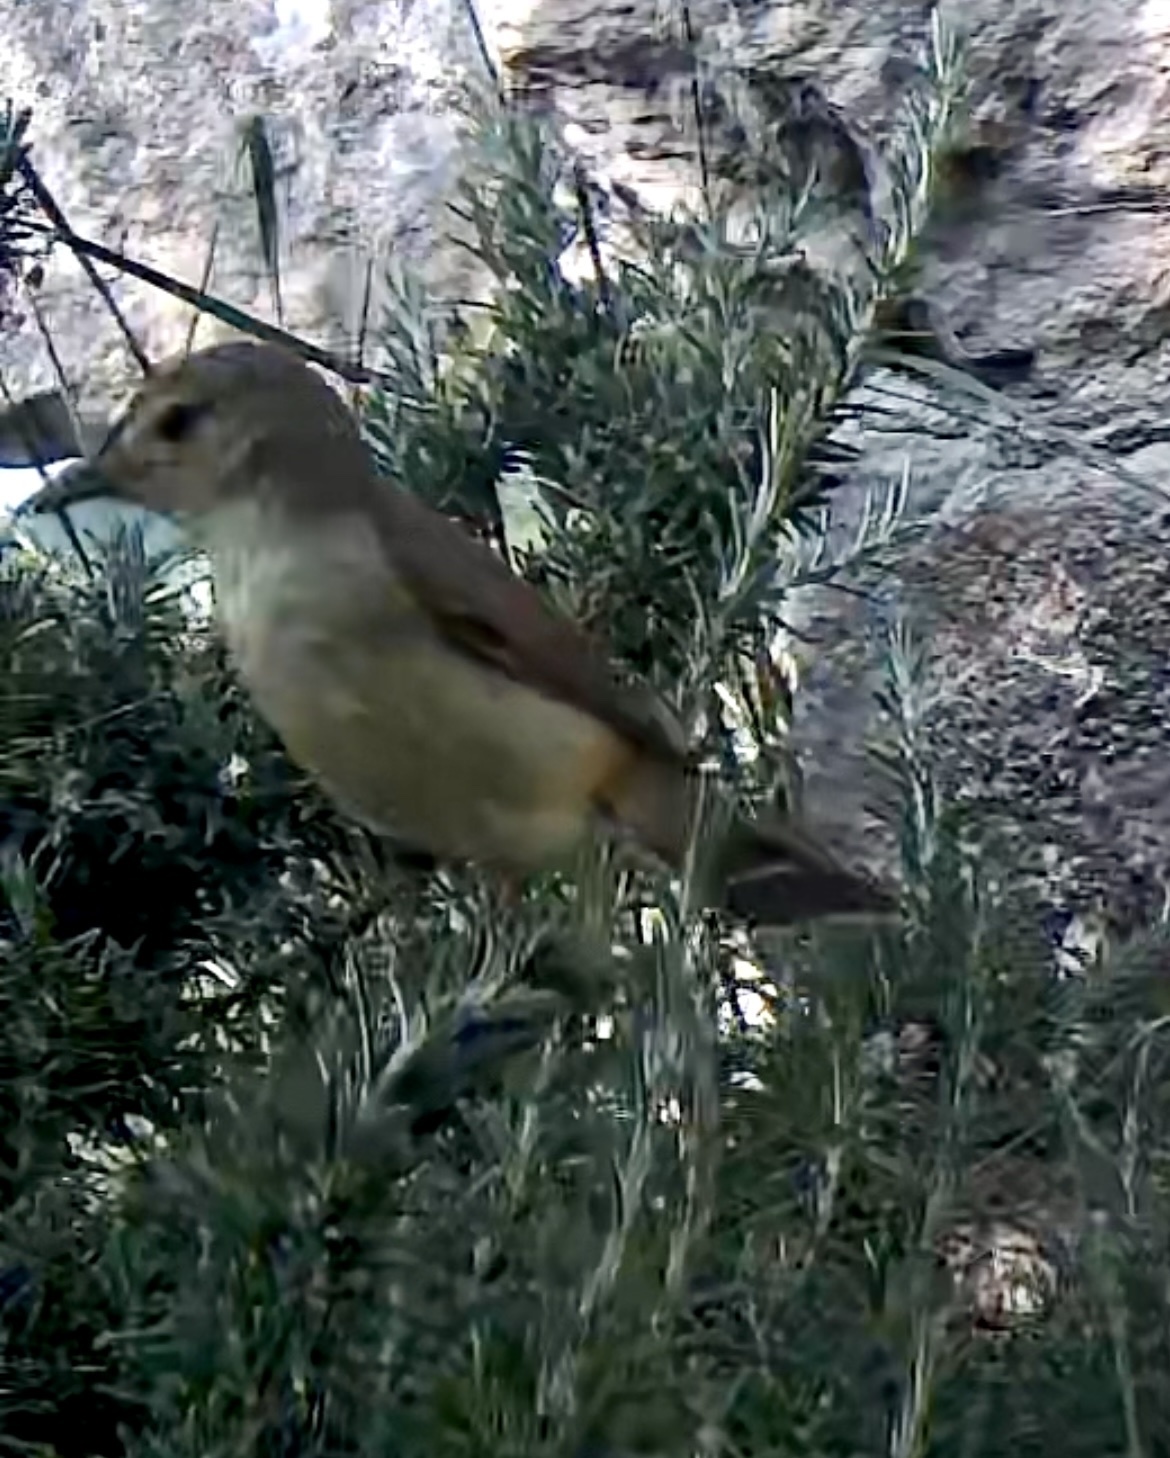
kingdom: Animalia
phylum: Chordata
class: Aves
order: Passeriformes
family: Acrocephalidae
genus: Hippolais
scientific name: Hippolais polyglotta
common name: Melodious warbler
